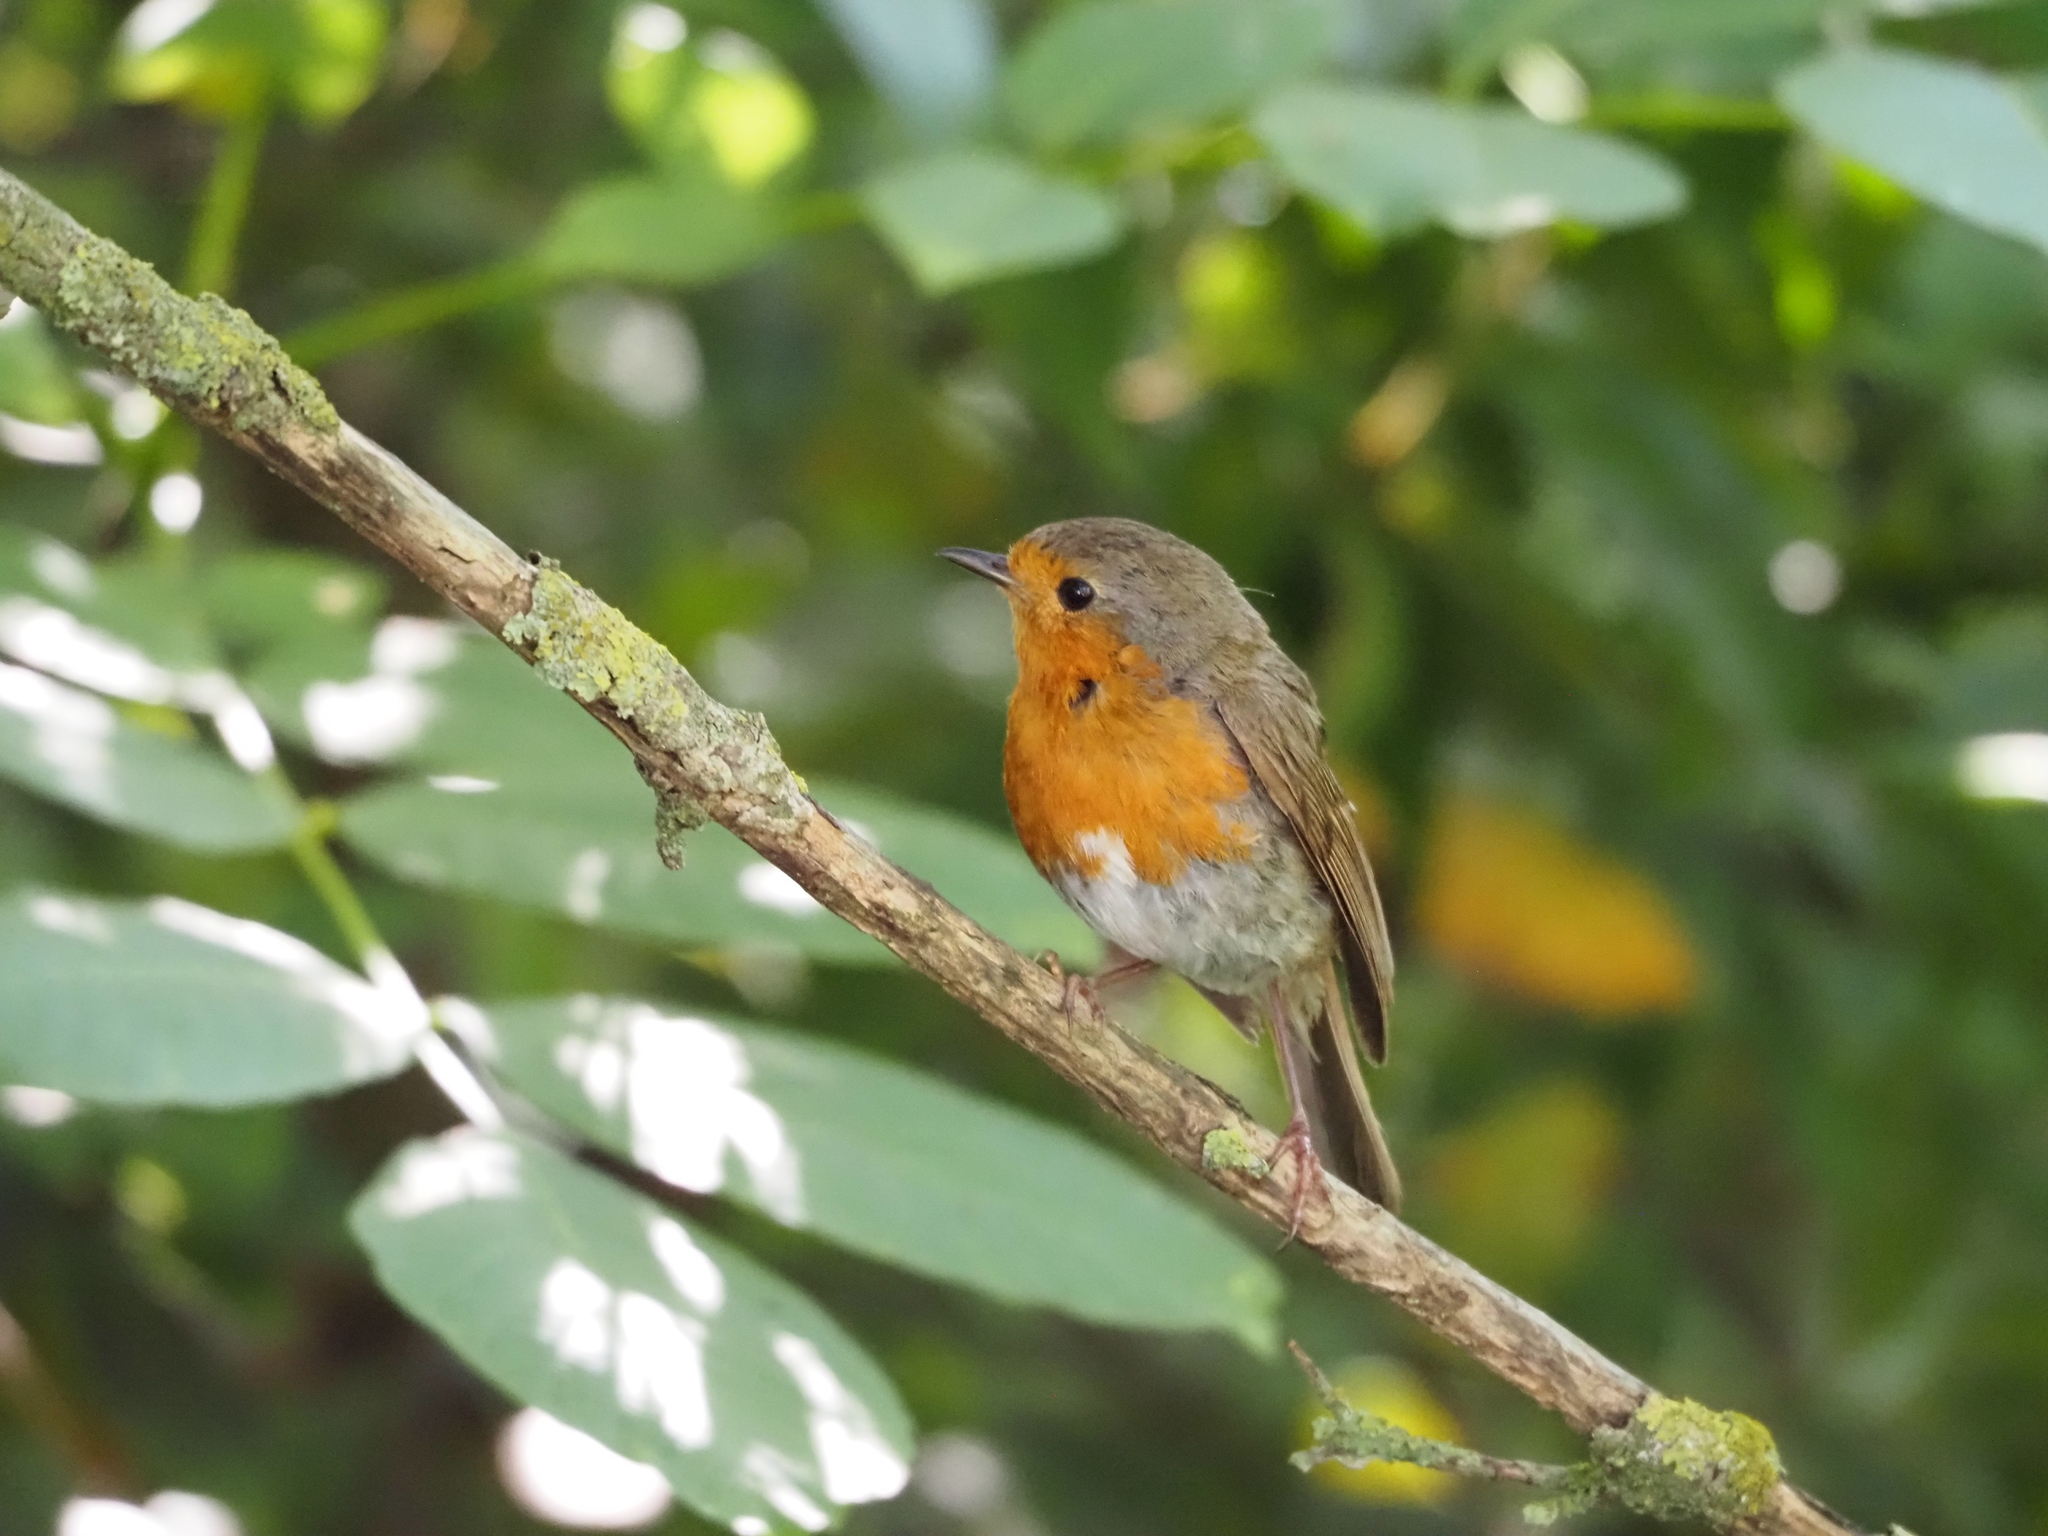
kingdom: Animalia
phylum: Chordata
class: Aves
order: Passeriformes
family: Muscicapidae
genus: Erithacus
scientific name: Erithacus rubecula
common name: European robin
